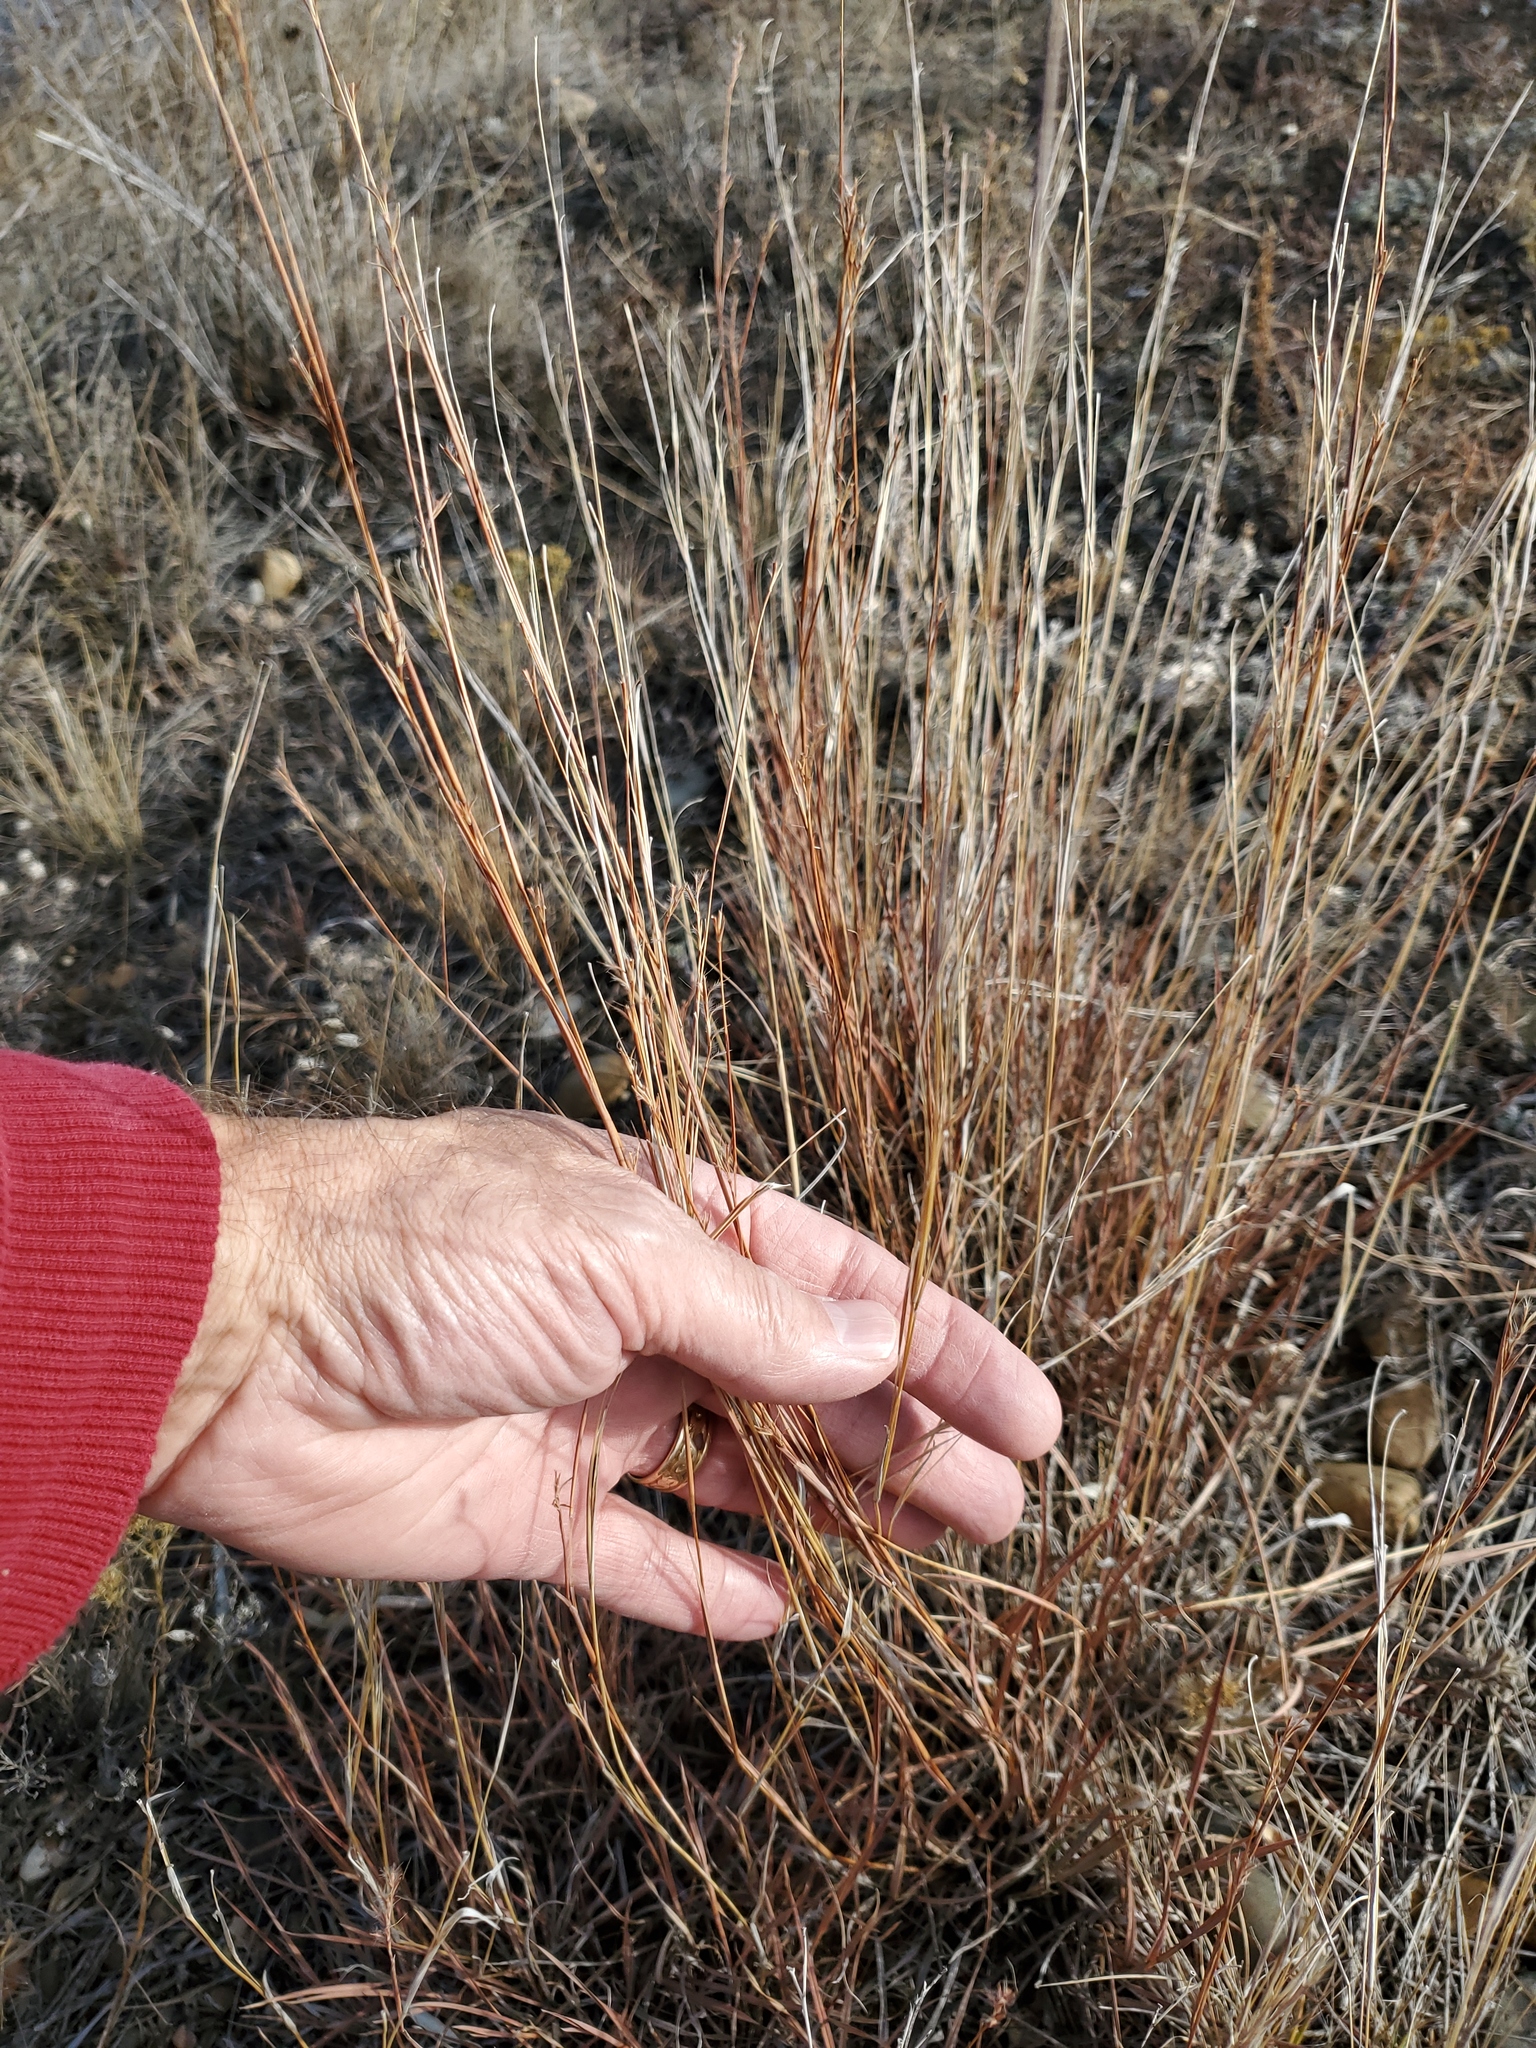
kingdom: Plantae
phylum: Tracheophyta
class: Liliopsida
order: Poales
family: Poaceae
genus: Schizachyrium
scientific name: Schizachyrium scoparium
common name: Little bluestem
